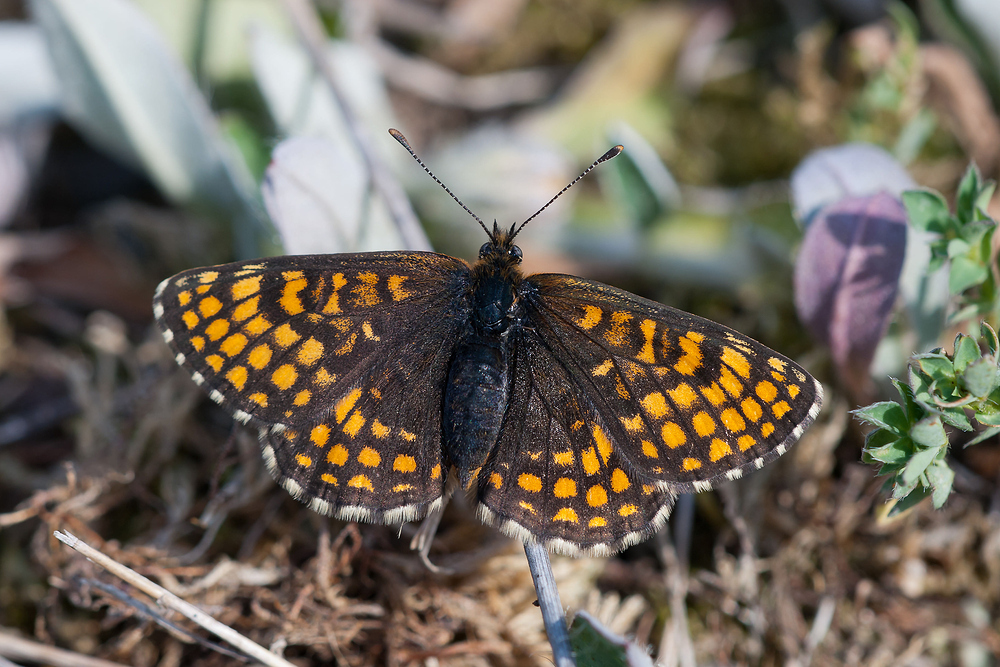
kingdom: Animalia
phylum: Arthropoda
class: Insecta
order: Lepidoptera
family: Nymphalidae
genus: Melitaea
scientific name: Melitaea athalia
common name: Heath fritillary
